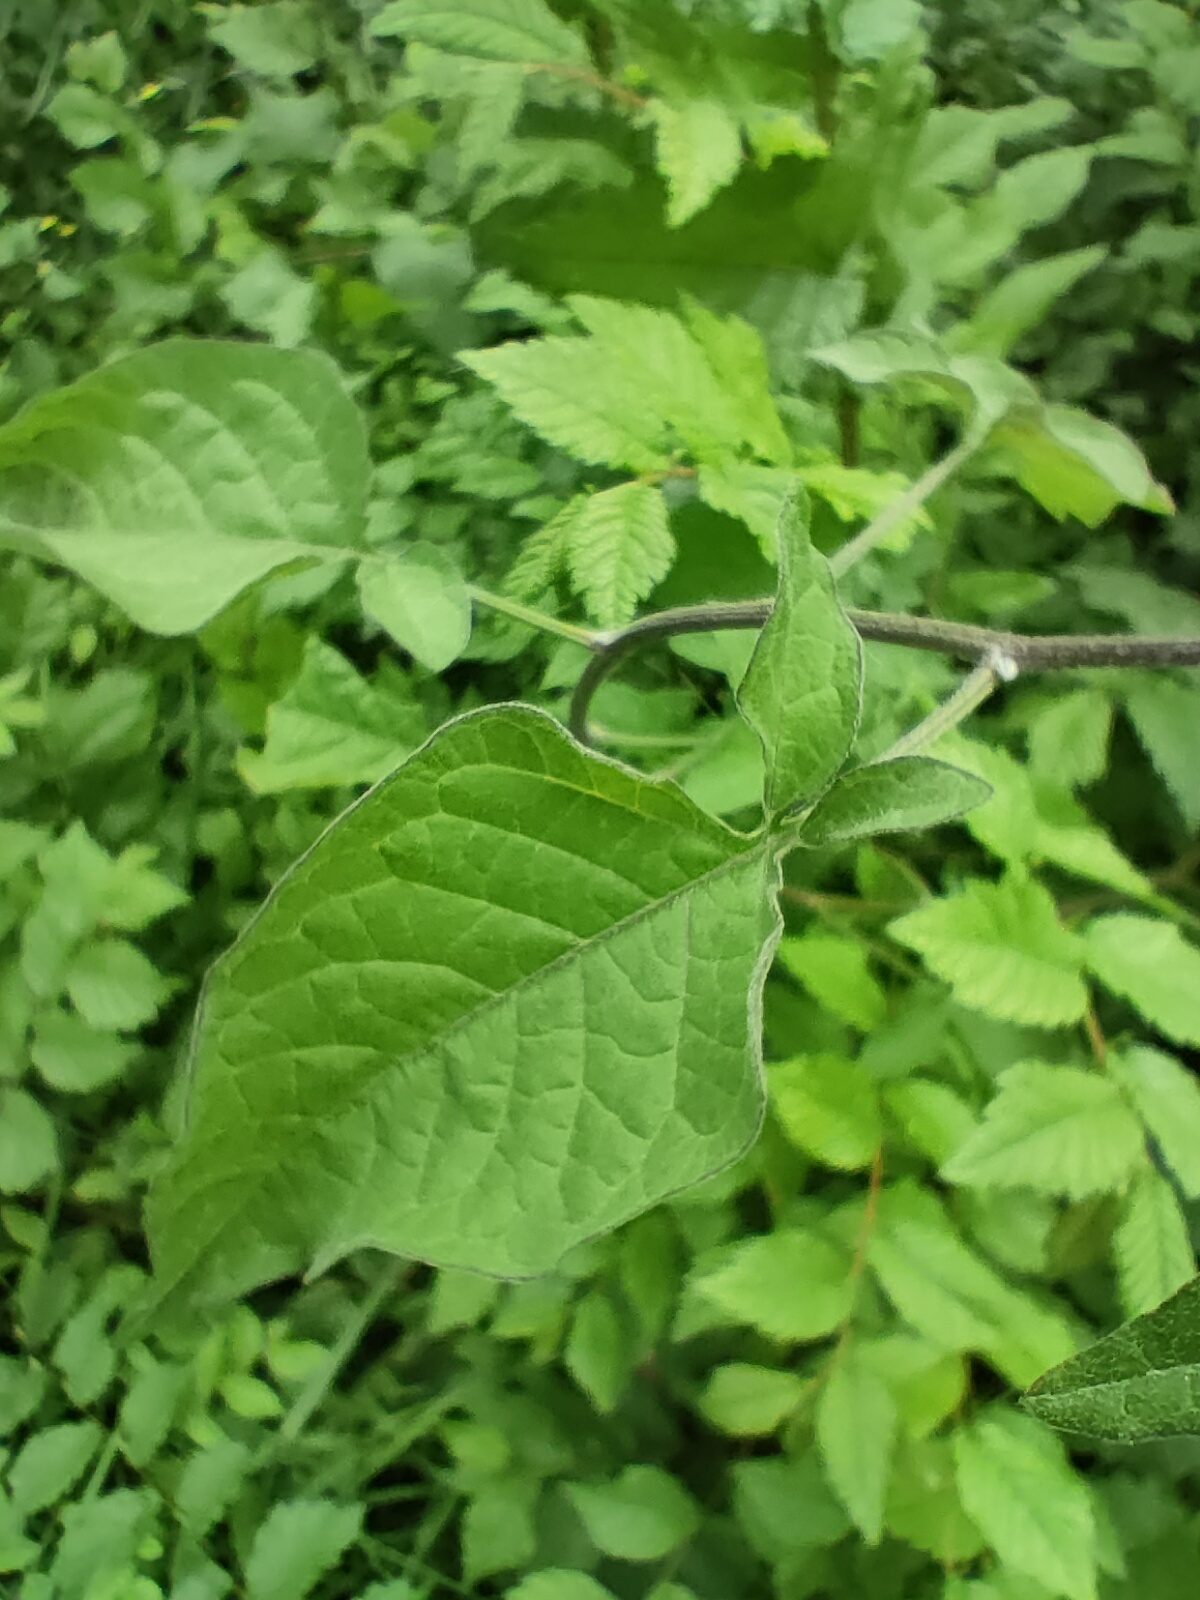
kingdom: Plantae
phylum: Tracheophyta
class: Magnoliopsida
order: Solanales
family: Solanaceae
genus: Solanum
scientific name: Solanum dulcamara
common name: Climbing nightshade
